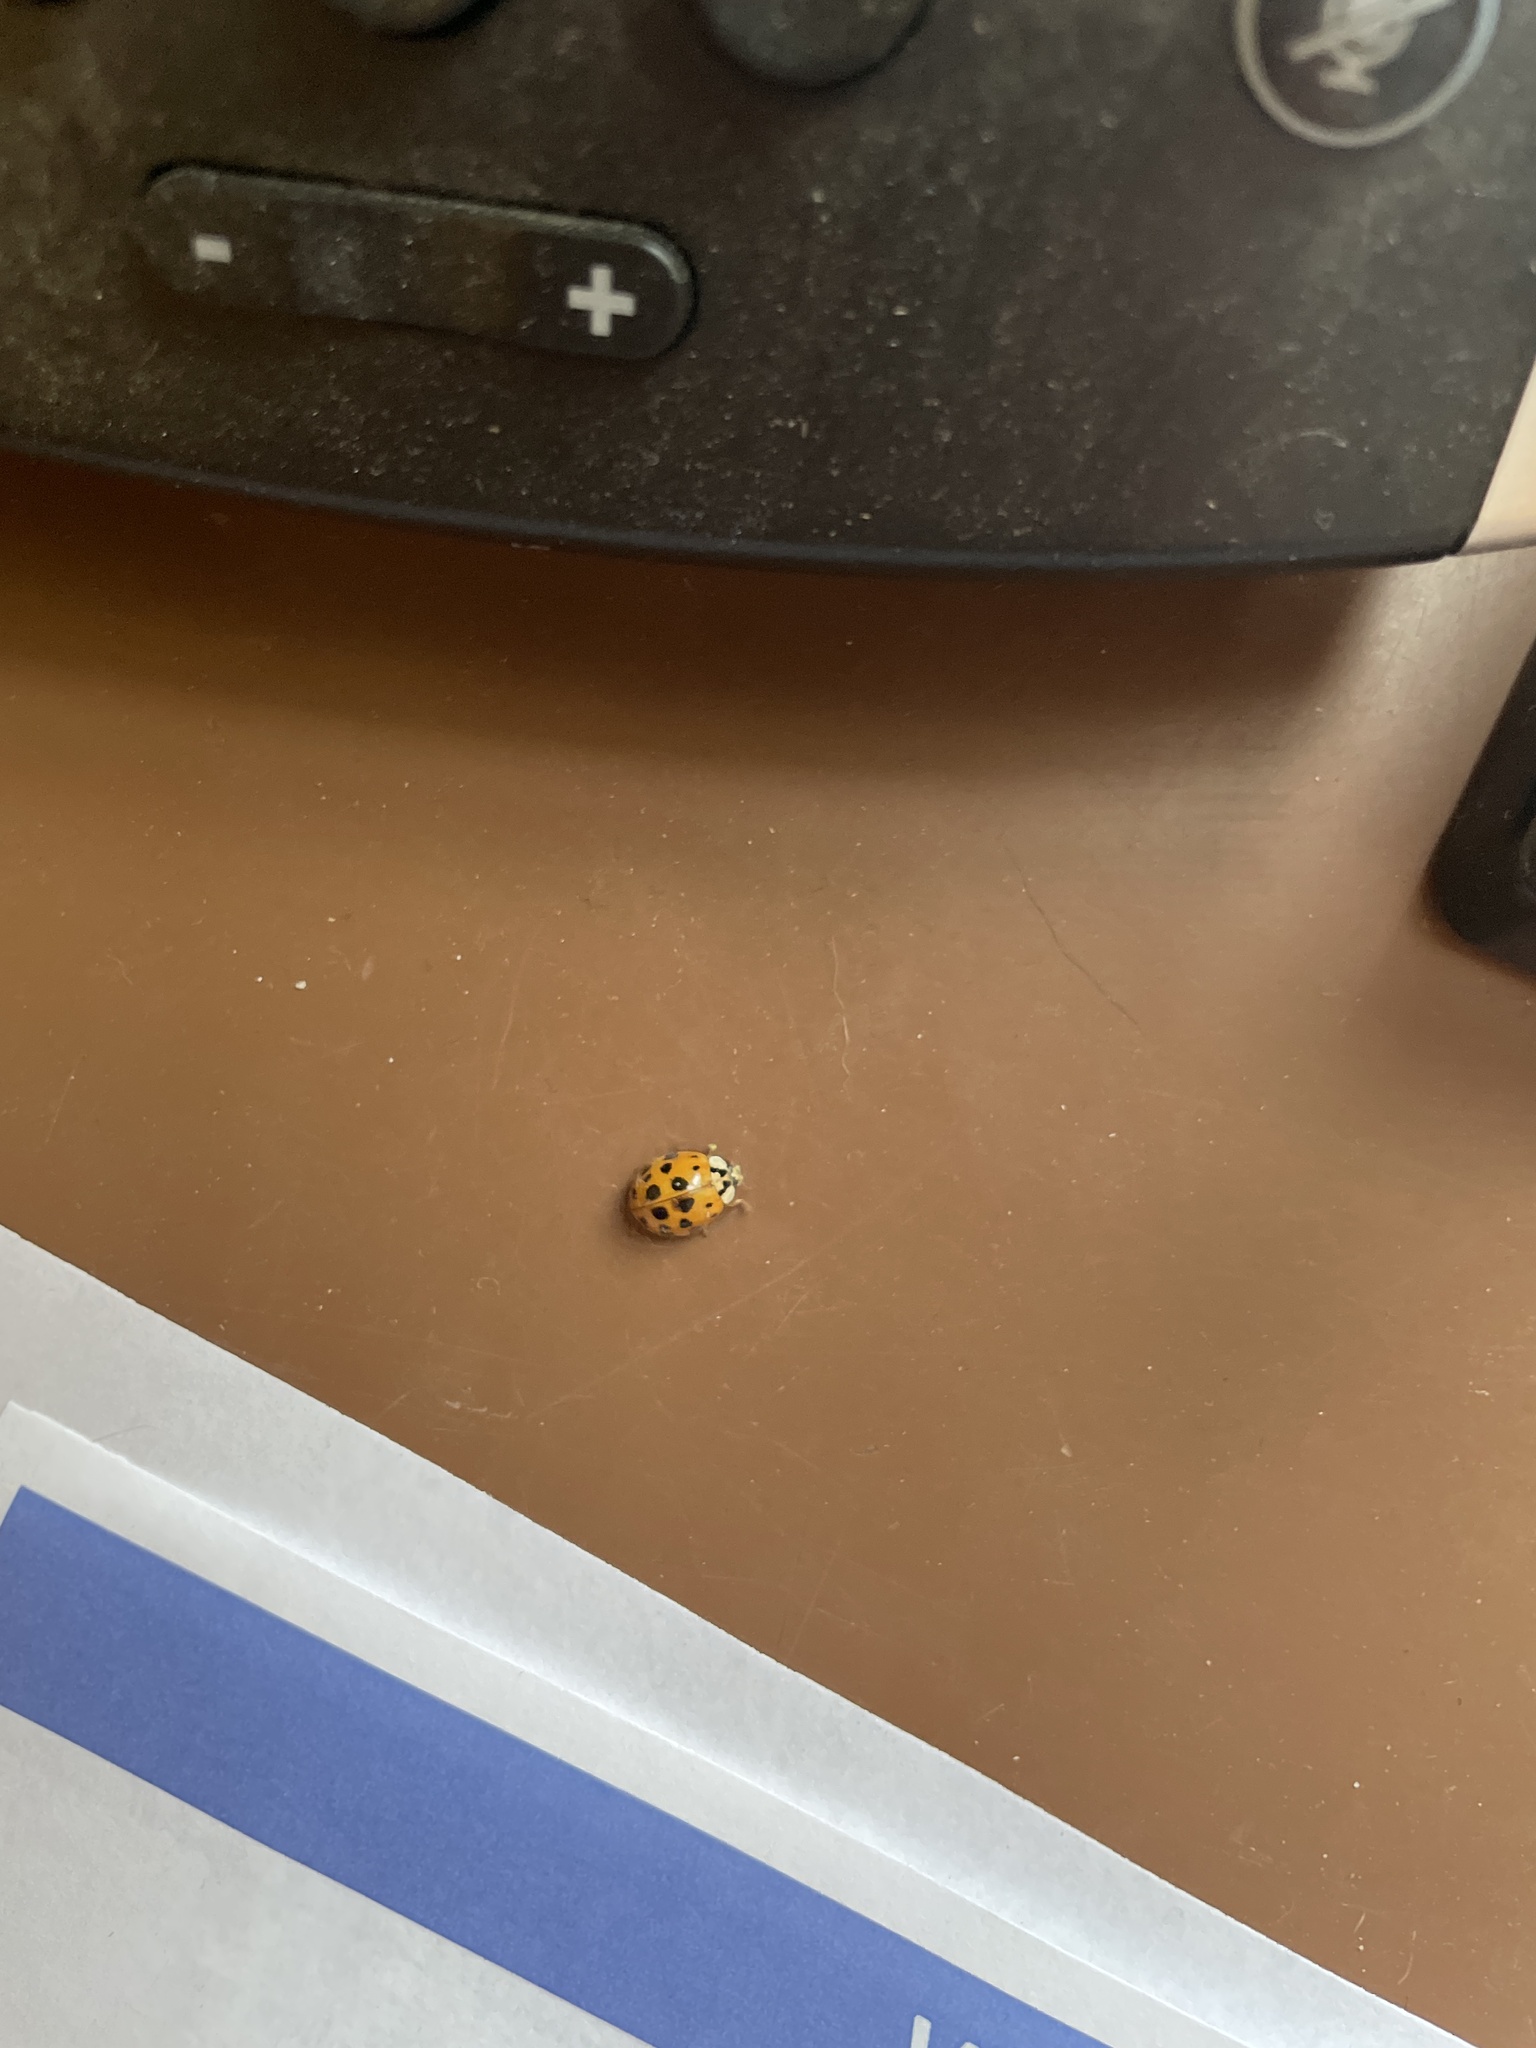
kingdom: Animalia
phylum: Arthropoda
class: Insecta
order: Coleoptera
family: Coccinellidae
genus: Harmonia
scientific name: Harmonia axyridis
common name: Harlequin ladybird
